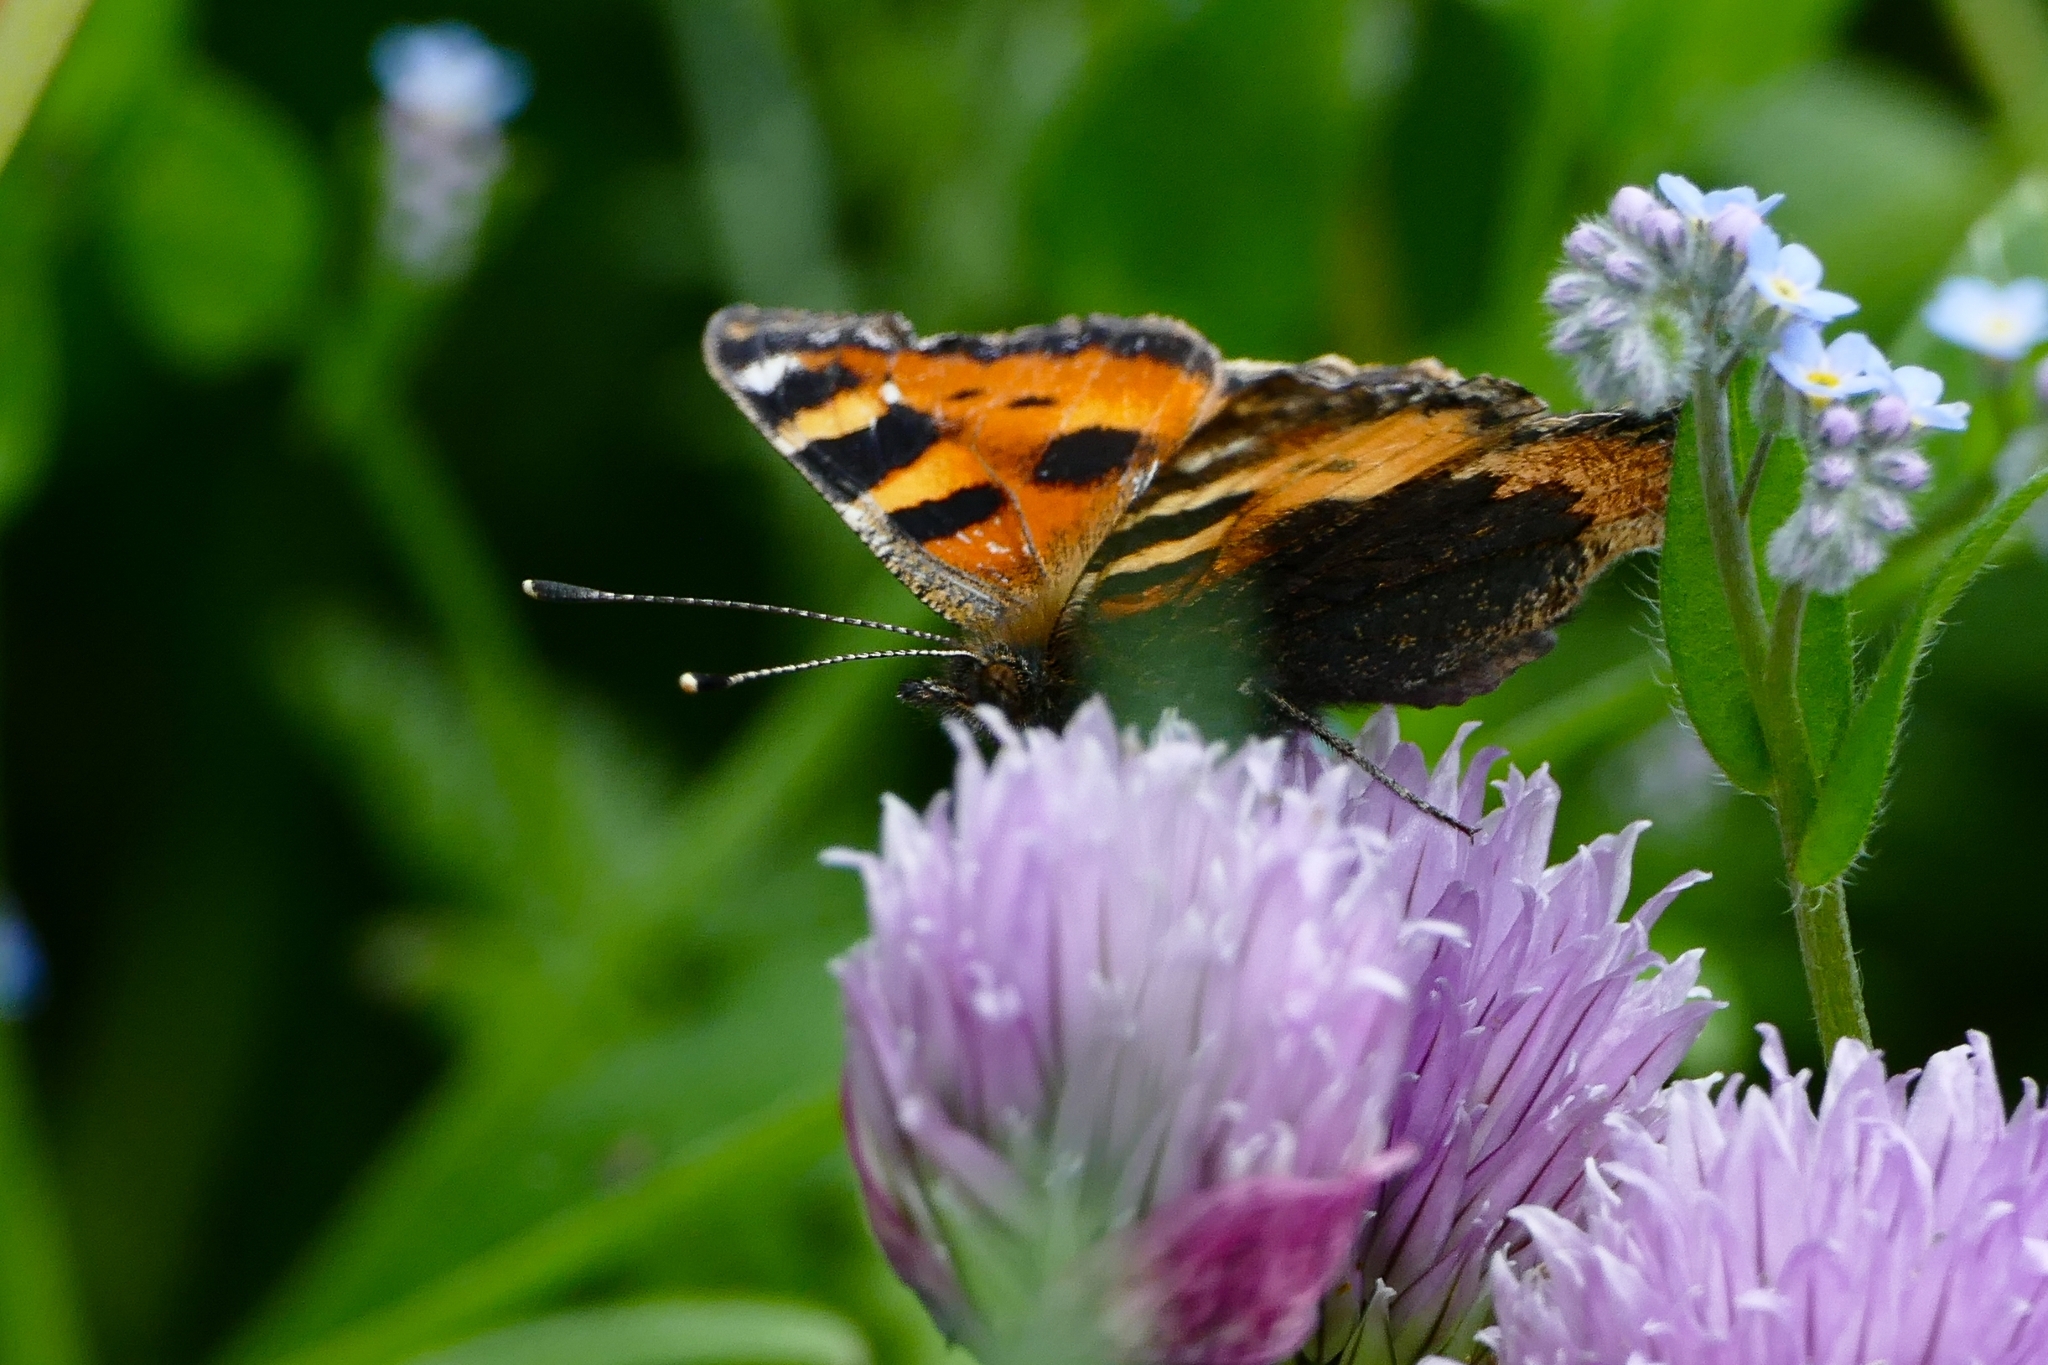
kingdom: Animalia
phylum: Arthropoda
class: Insecta
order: Lepidoptera
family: Nymphalidae
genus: Aglais
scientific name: Aglais urticae
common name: Small tortoiseshell
